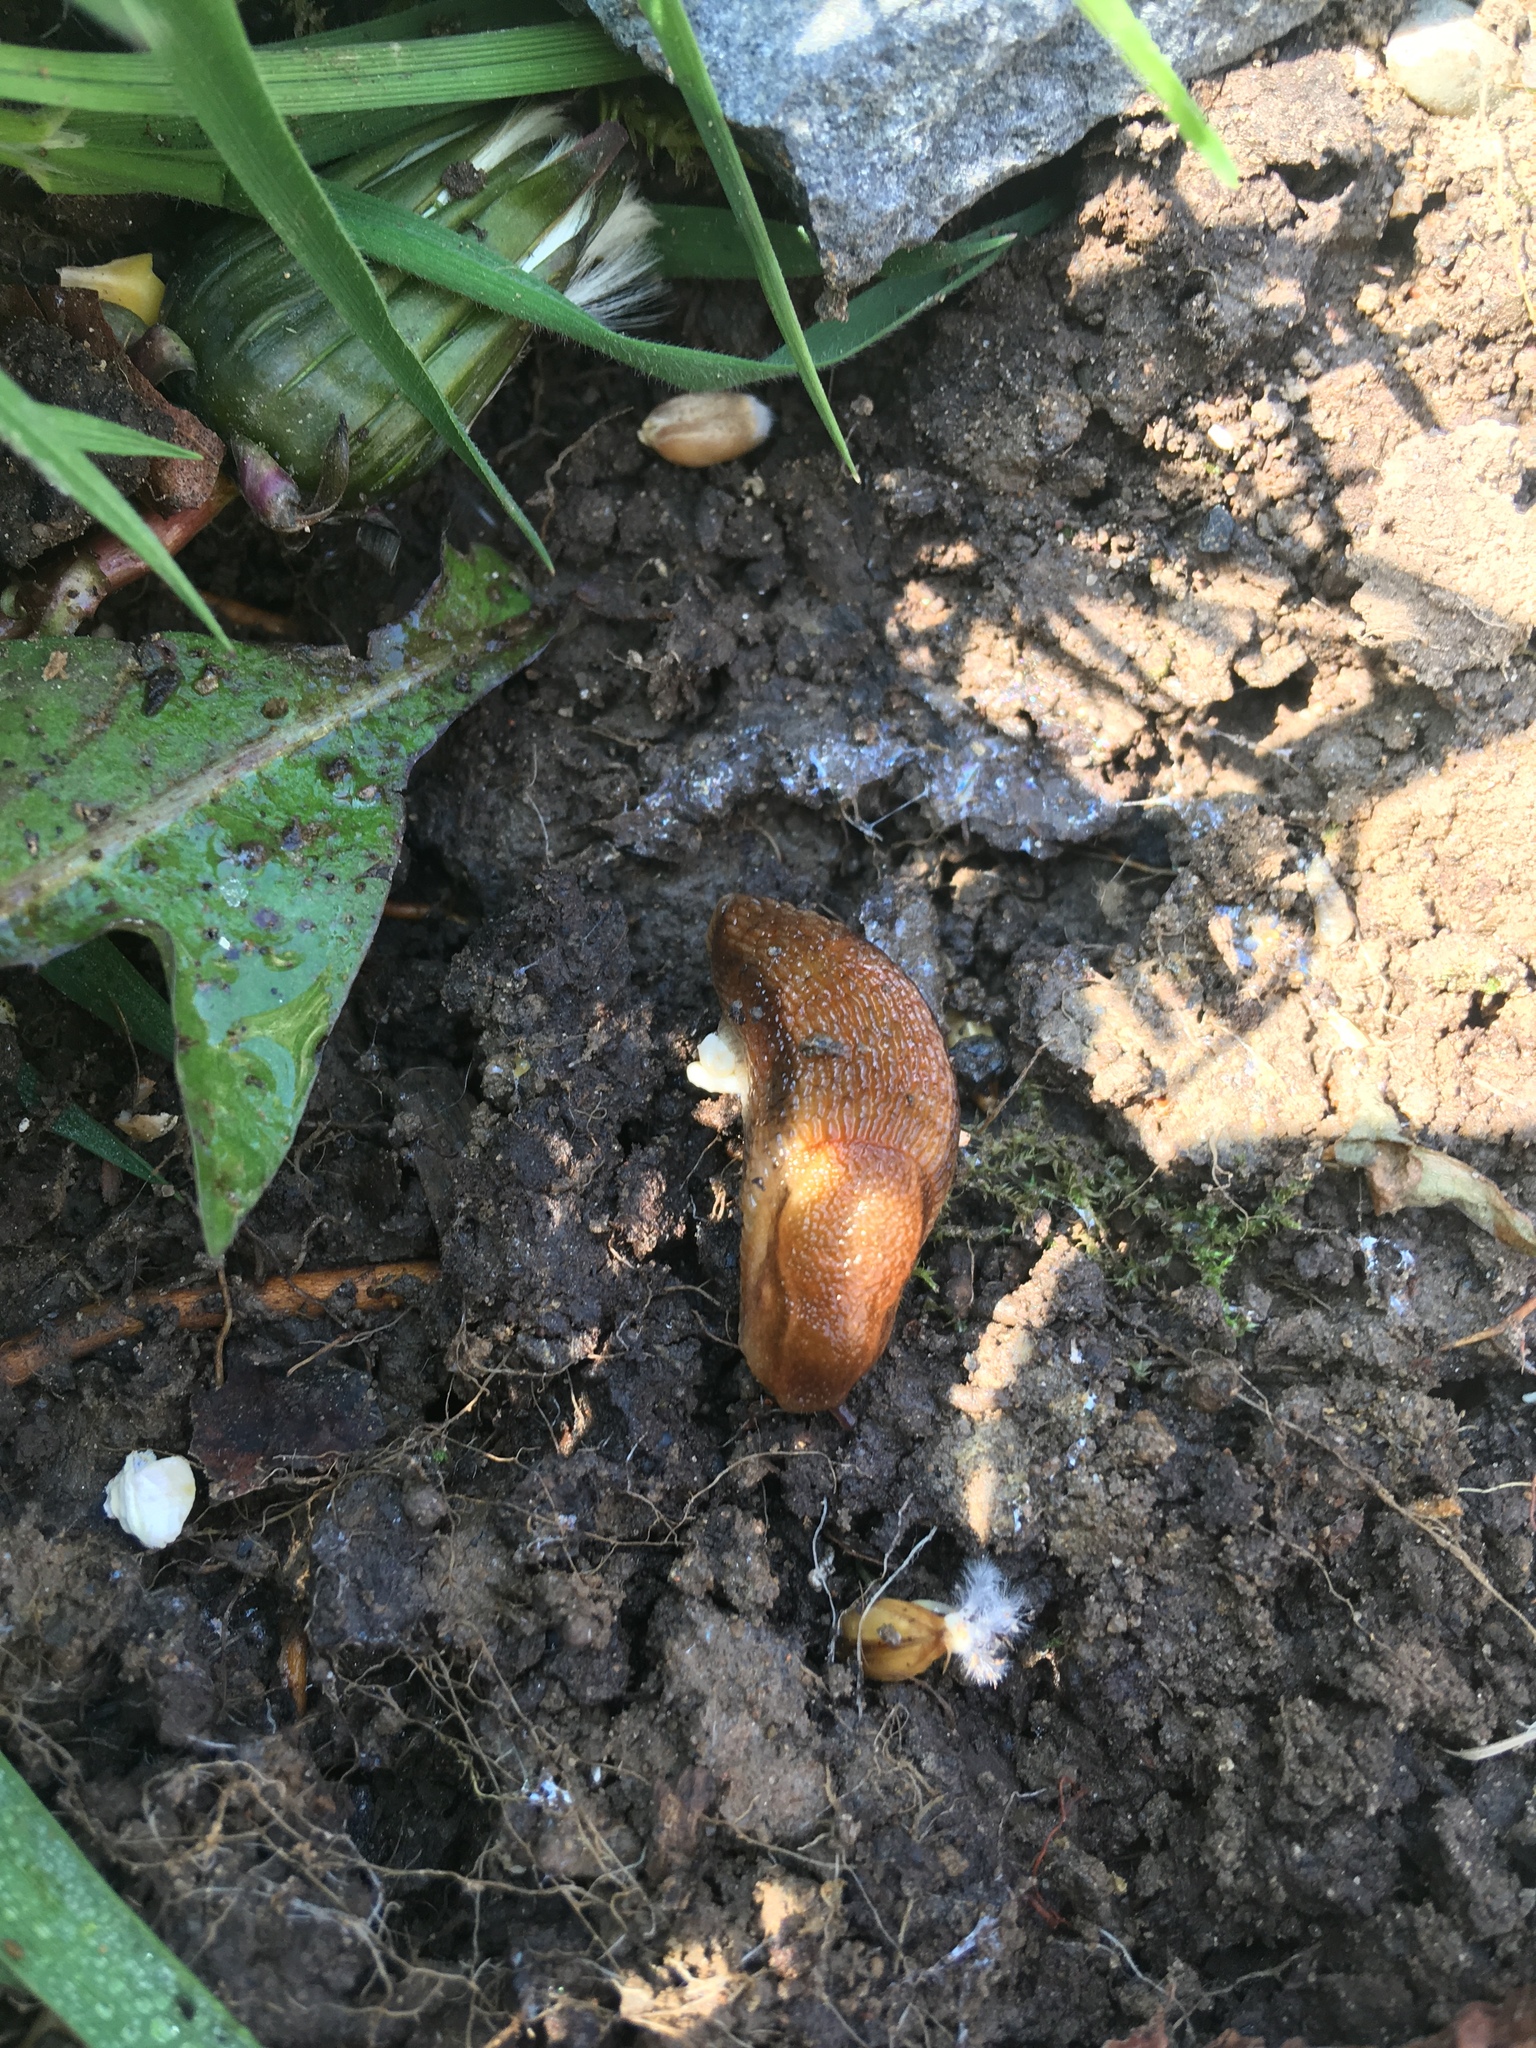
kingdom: Animalia
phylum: Mollusca
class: Gastropoda
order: Stylommatophora
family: Arionidae
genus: Arion
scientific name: Arion subfuscus
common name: Dusky arion
